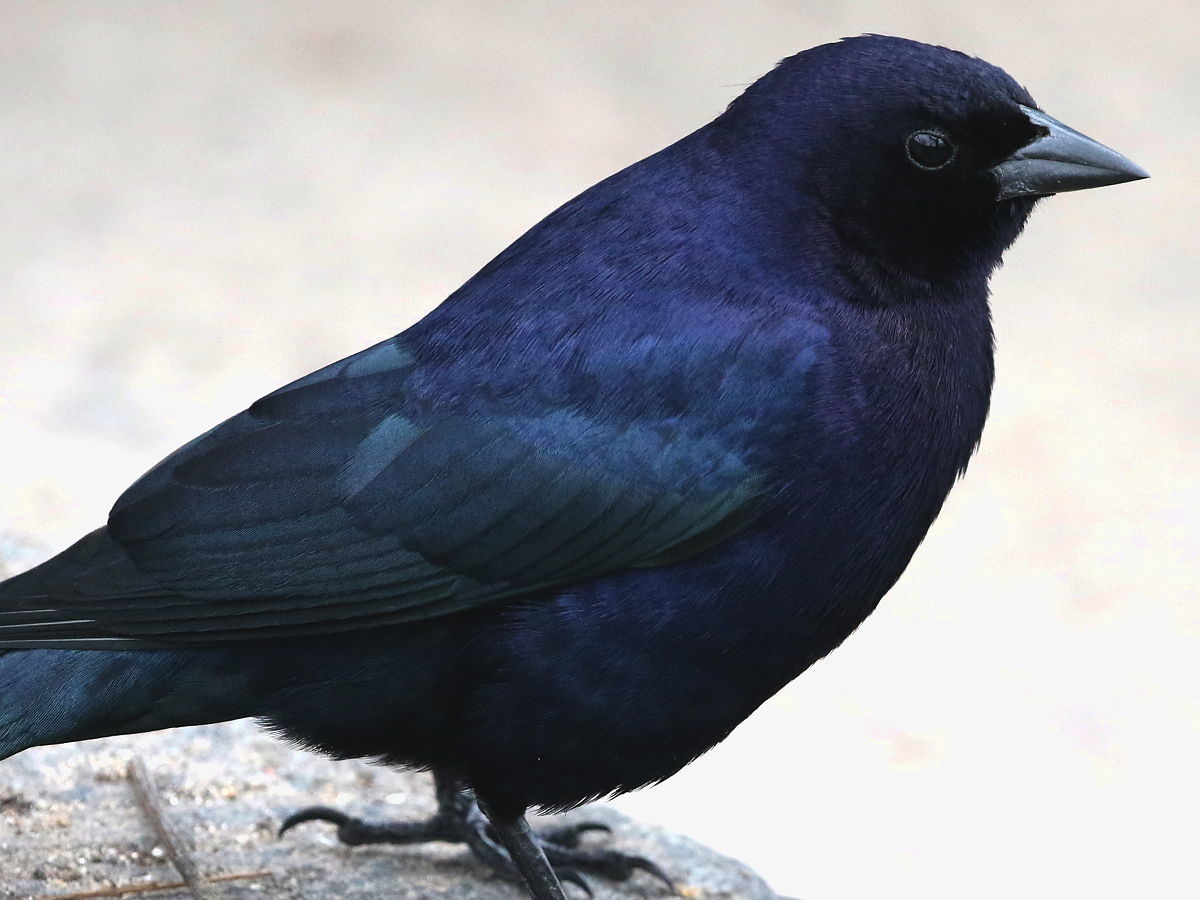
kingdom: Animalia
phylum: Chordata
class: Aves
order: Passeriformes
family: Icteridae
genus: Molothrus
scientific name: Molothrus bonariensis
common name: Shiny cowbird
